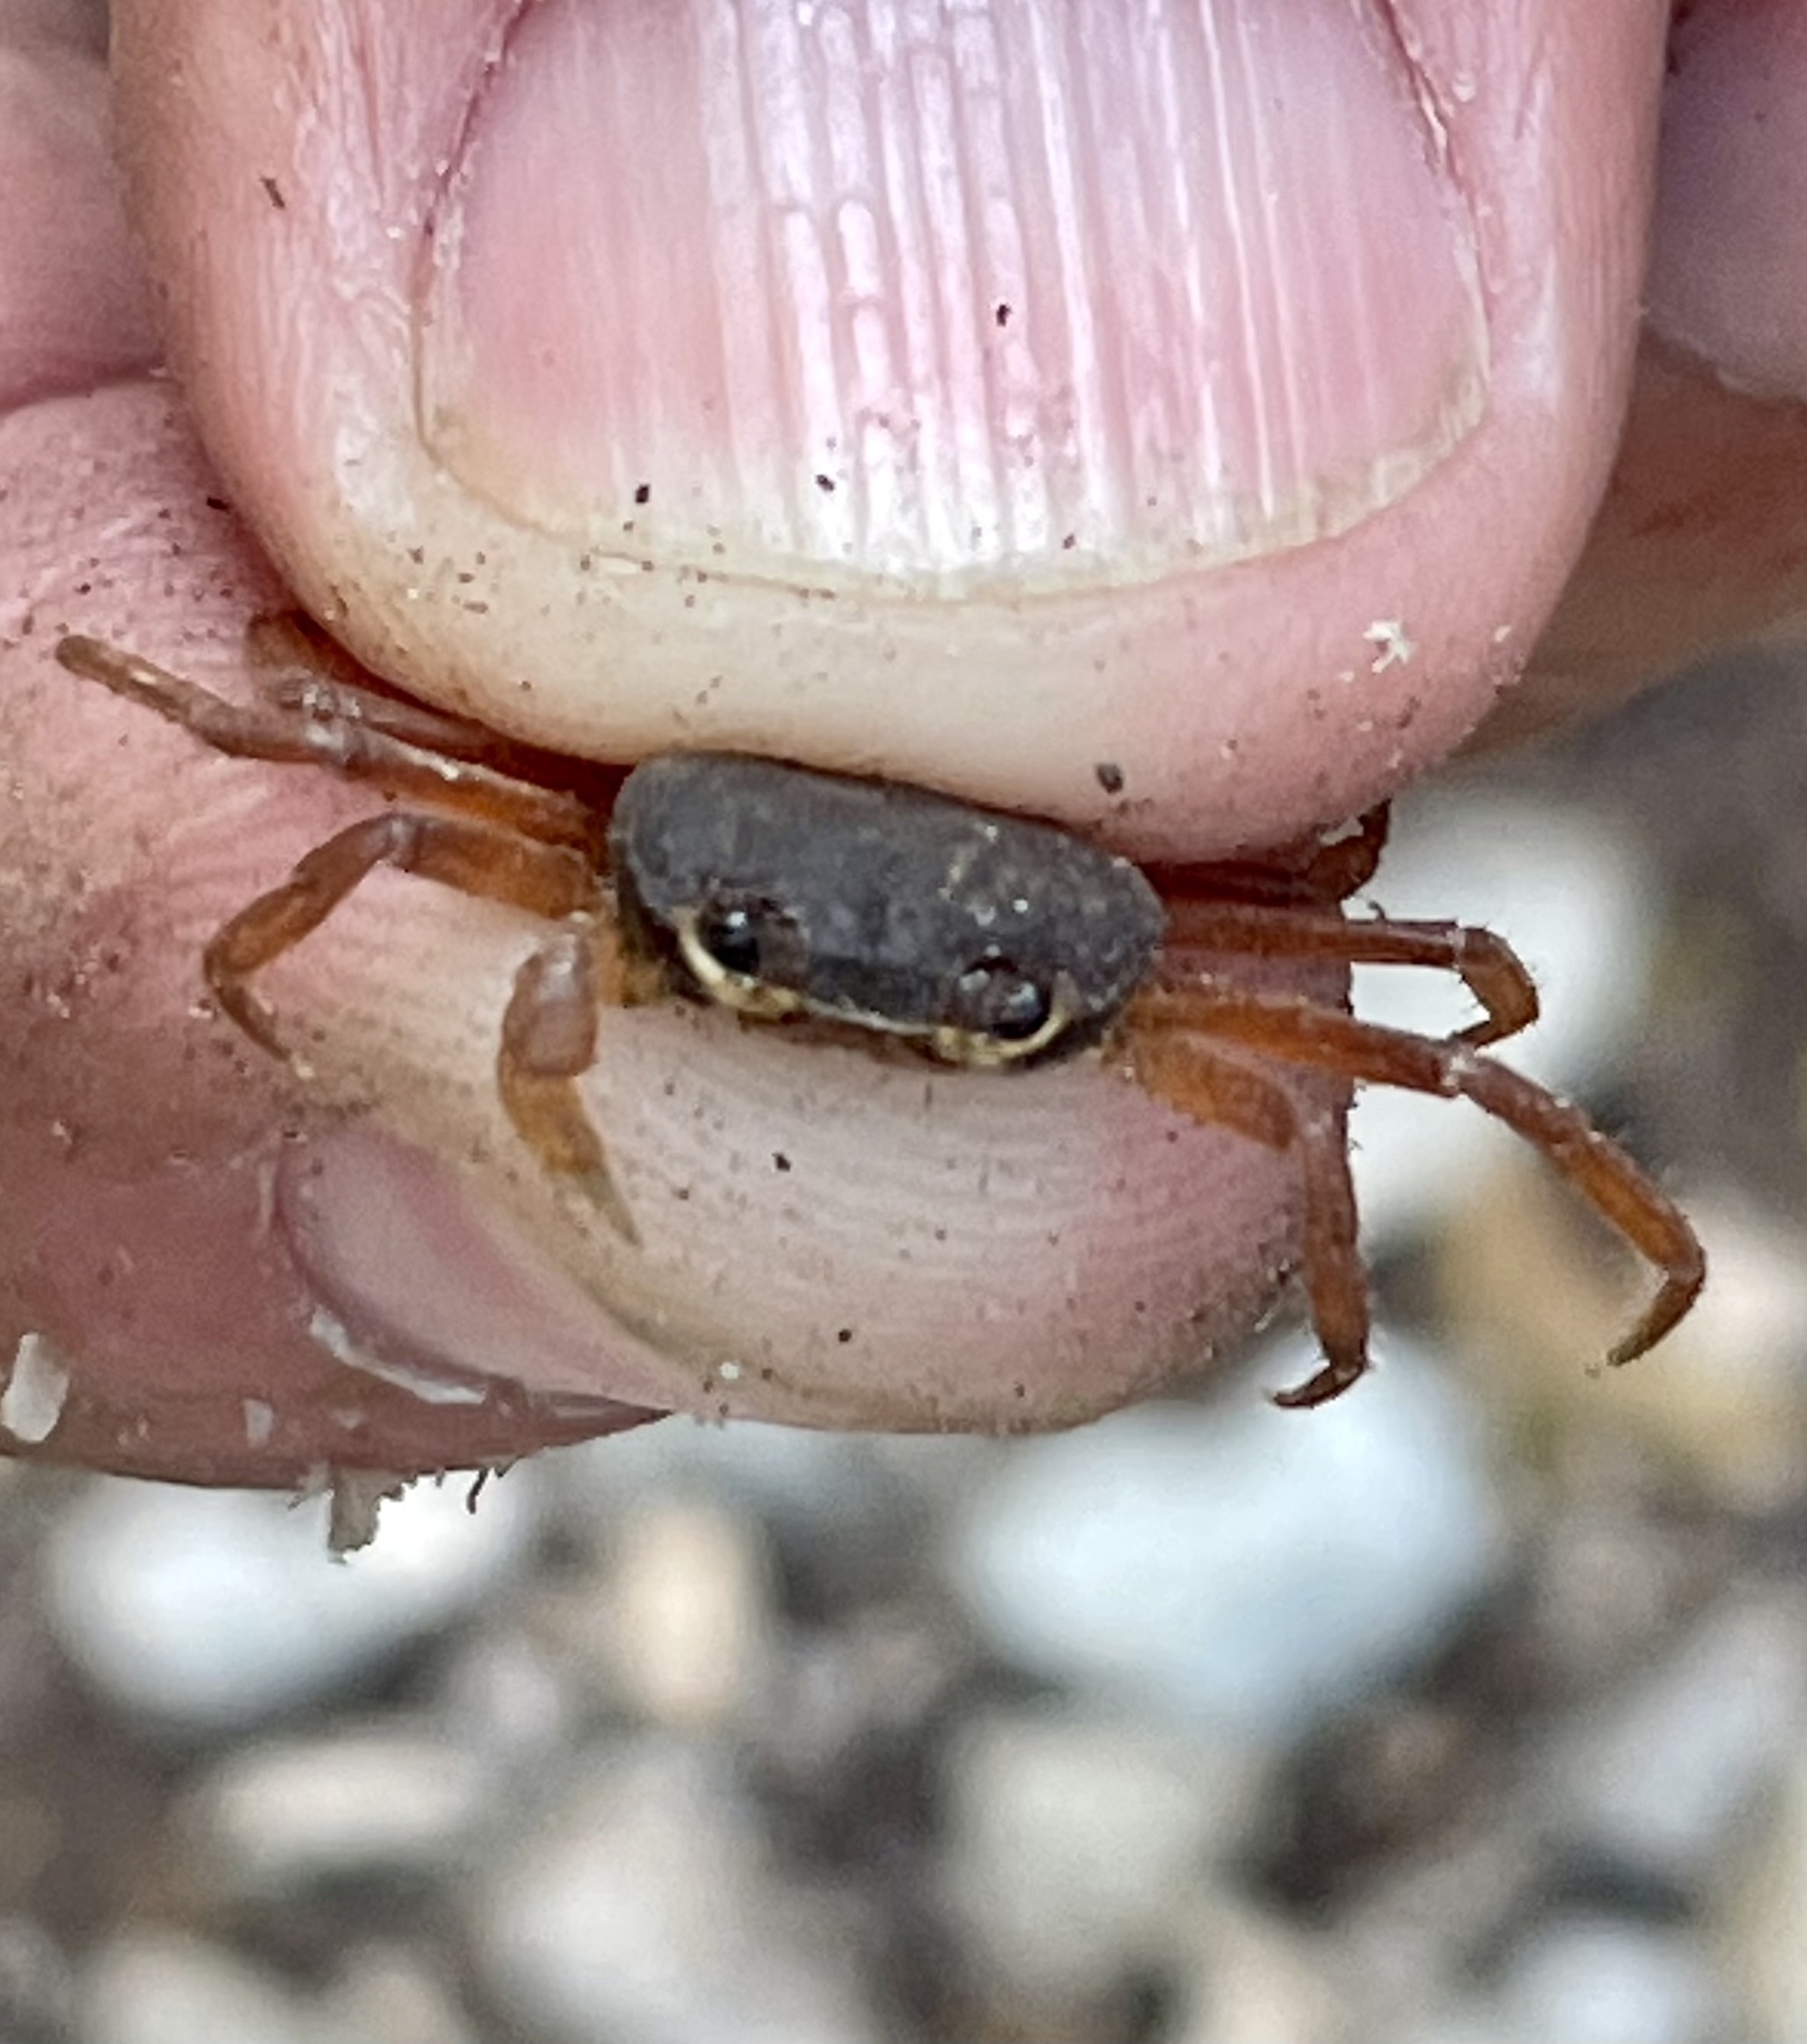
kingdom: Animalia
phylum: Arthropoda
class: Malacostraca
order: Decapoda
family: Gecarcinidae
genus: Gecarcinus
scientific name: Gecarcinus ruricola
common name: Black land crab
